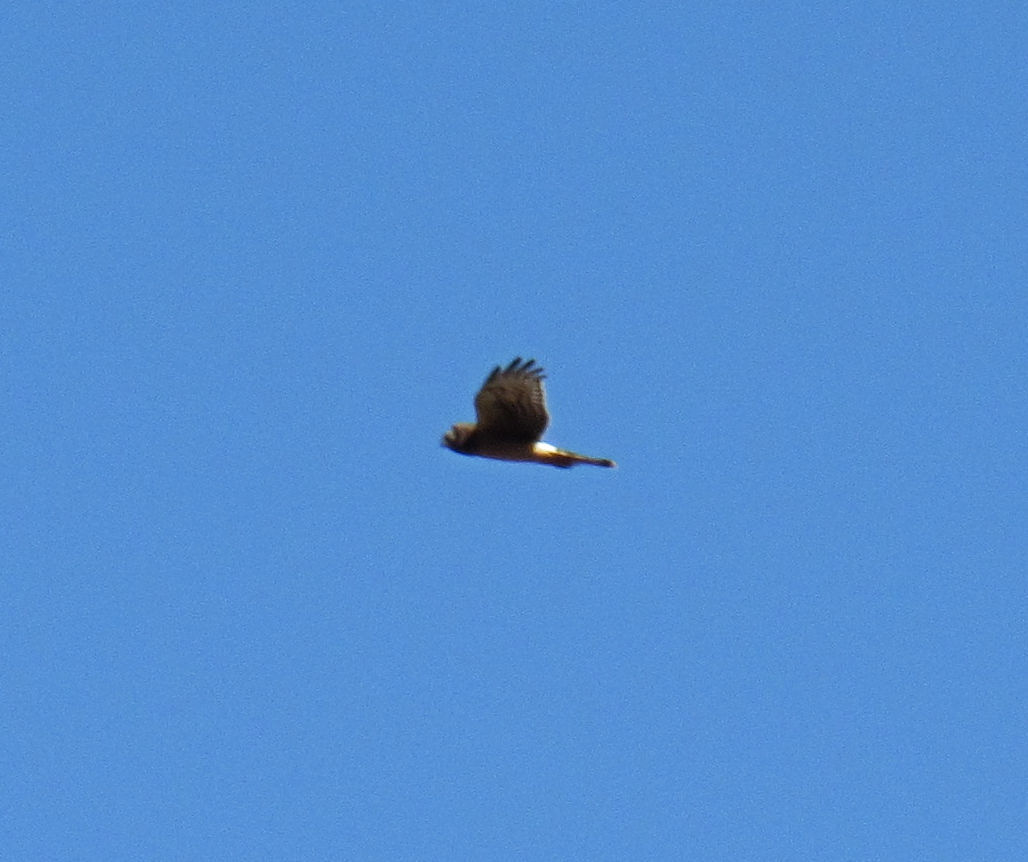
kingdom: Animalia
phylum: Chordata
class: Aves
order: Accipitriformes
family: Accipitridae
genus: Circus
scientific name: Circus cyaneus
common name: Hen harrier
